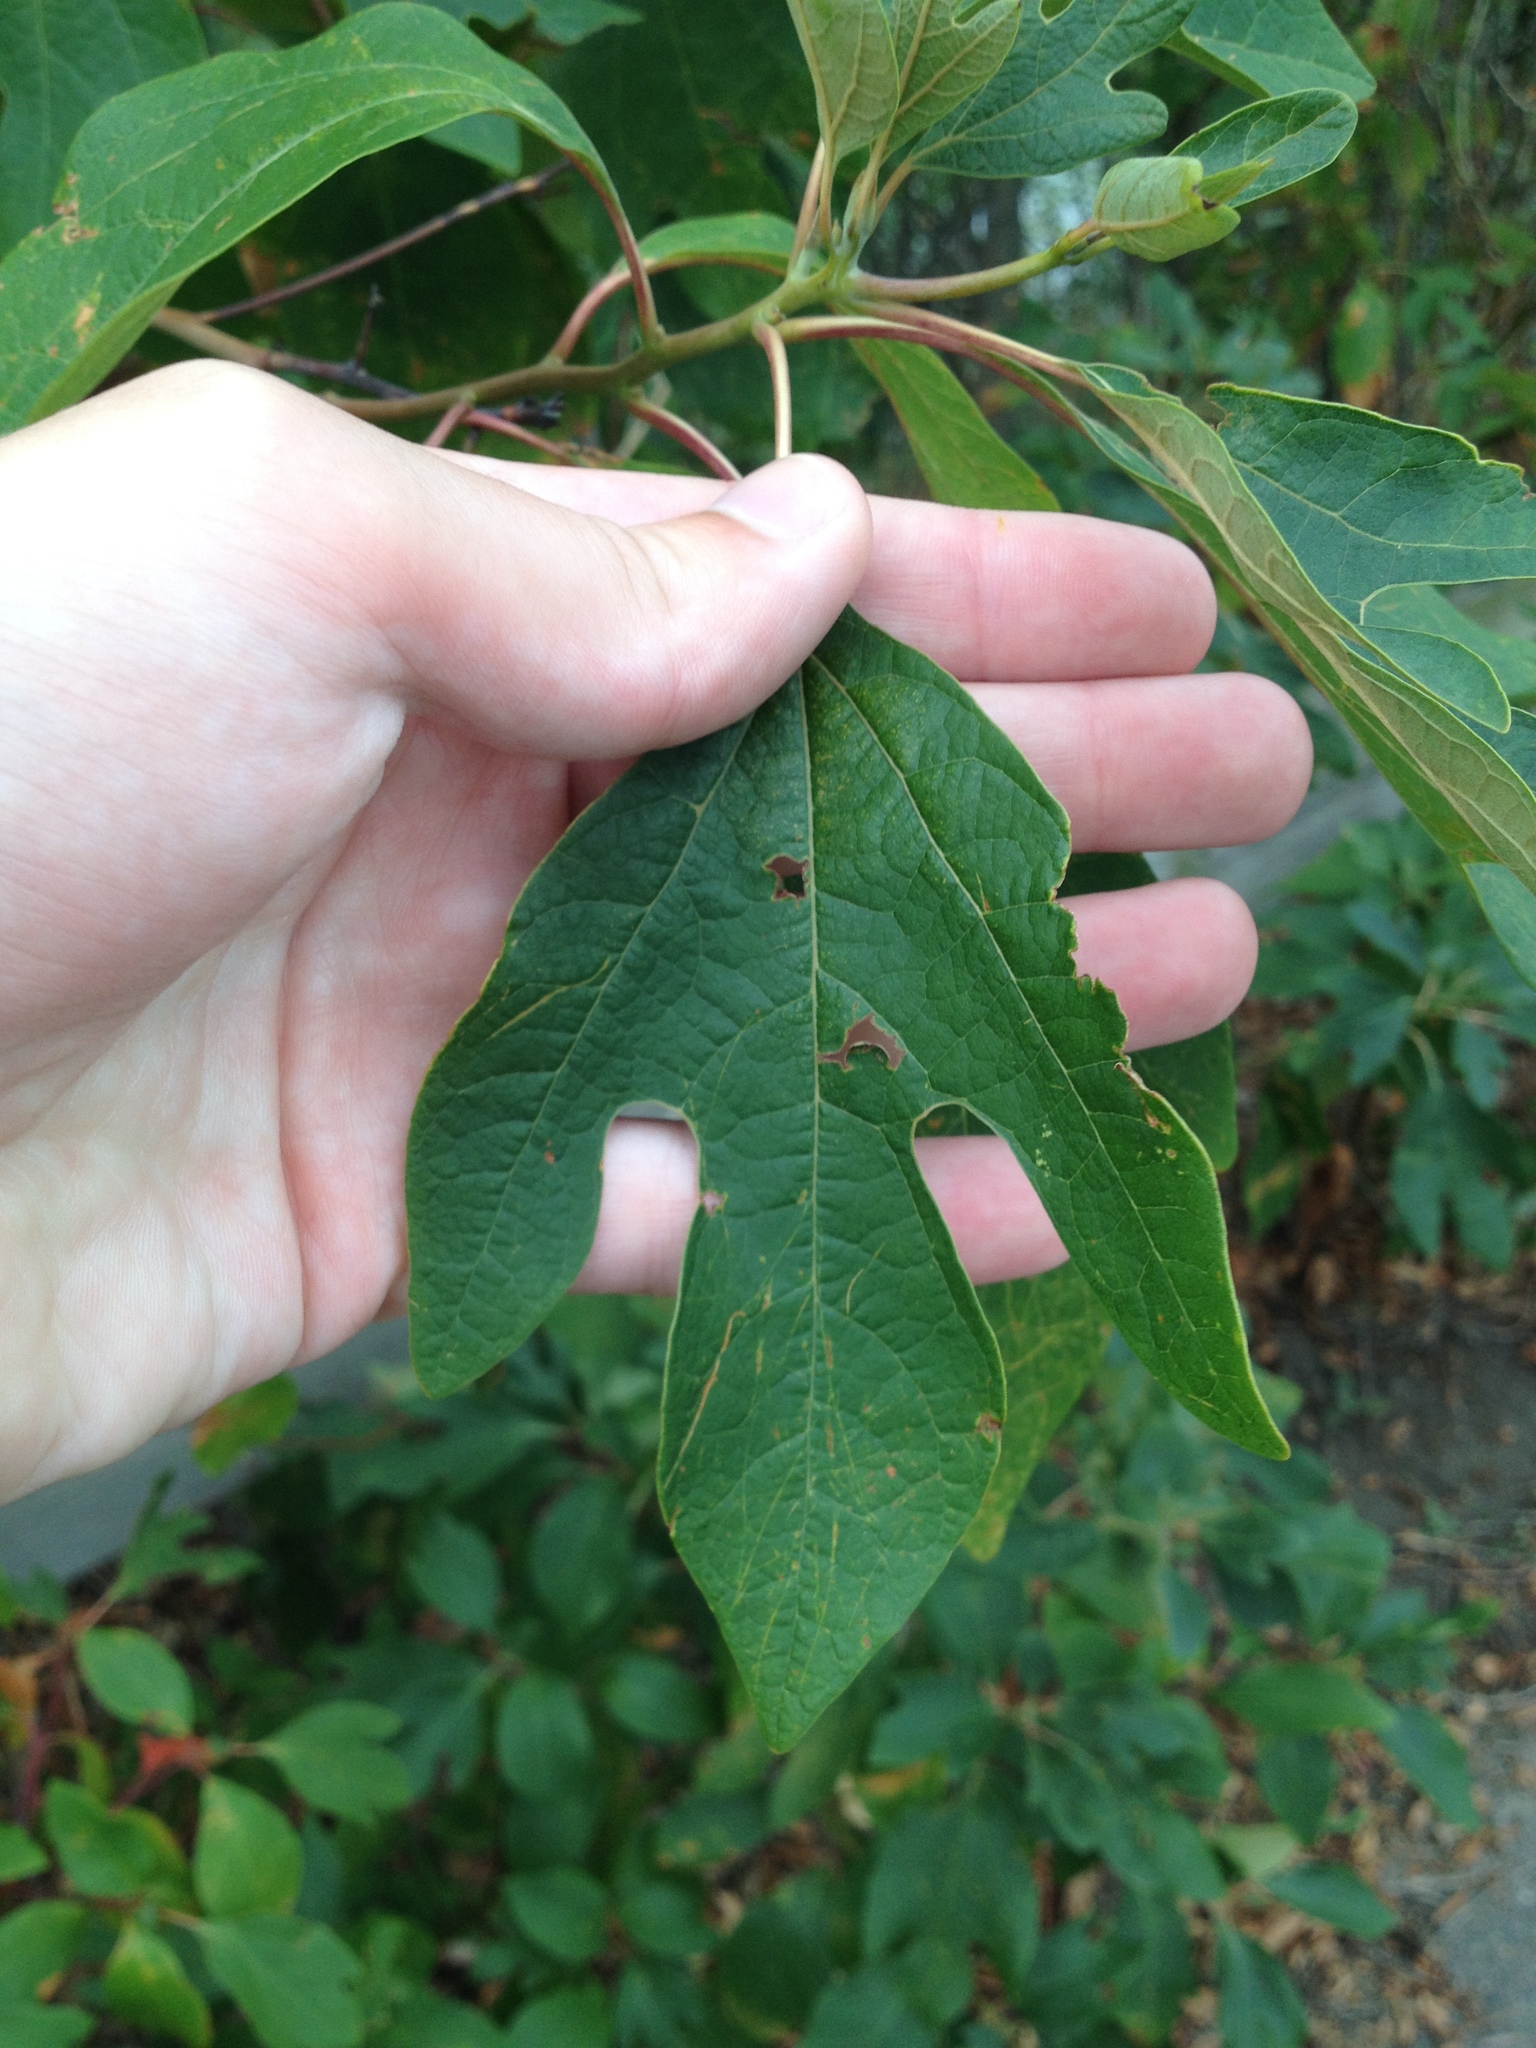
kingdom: Plantae
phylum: Tracheophyta
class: Magnoliopsida
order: Laurales
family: Lauraceae
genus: Sassafras
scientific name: Sassafras albidum
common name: Sassafras
